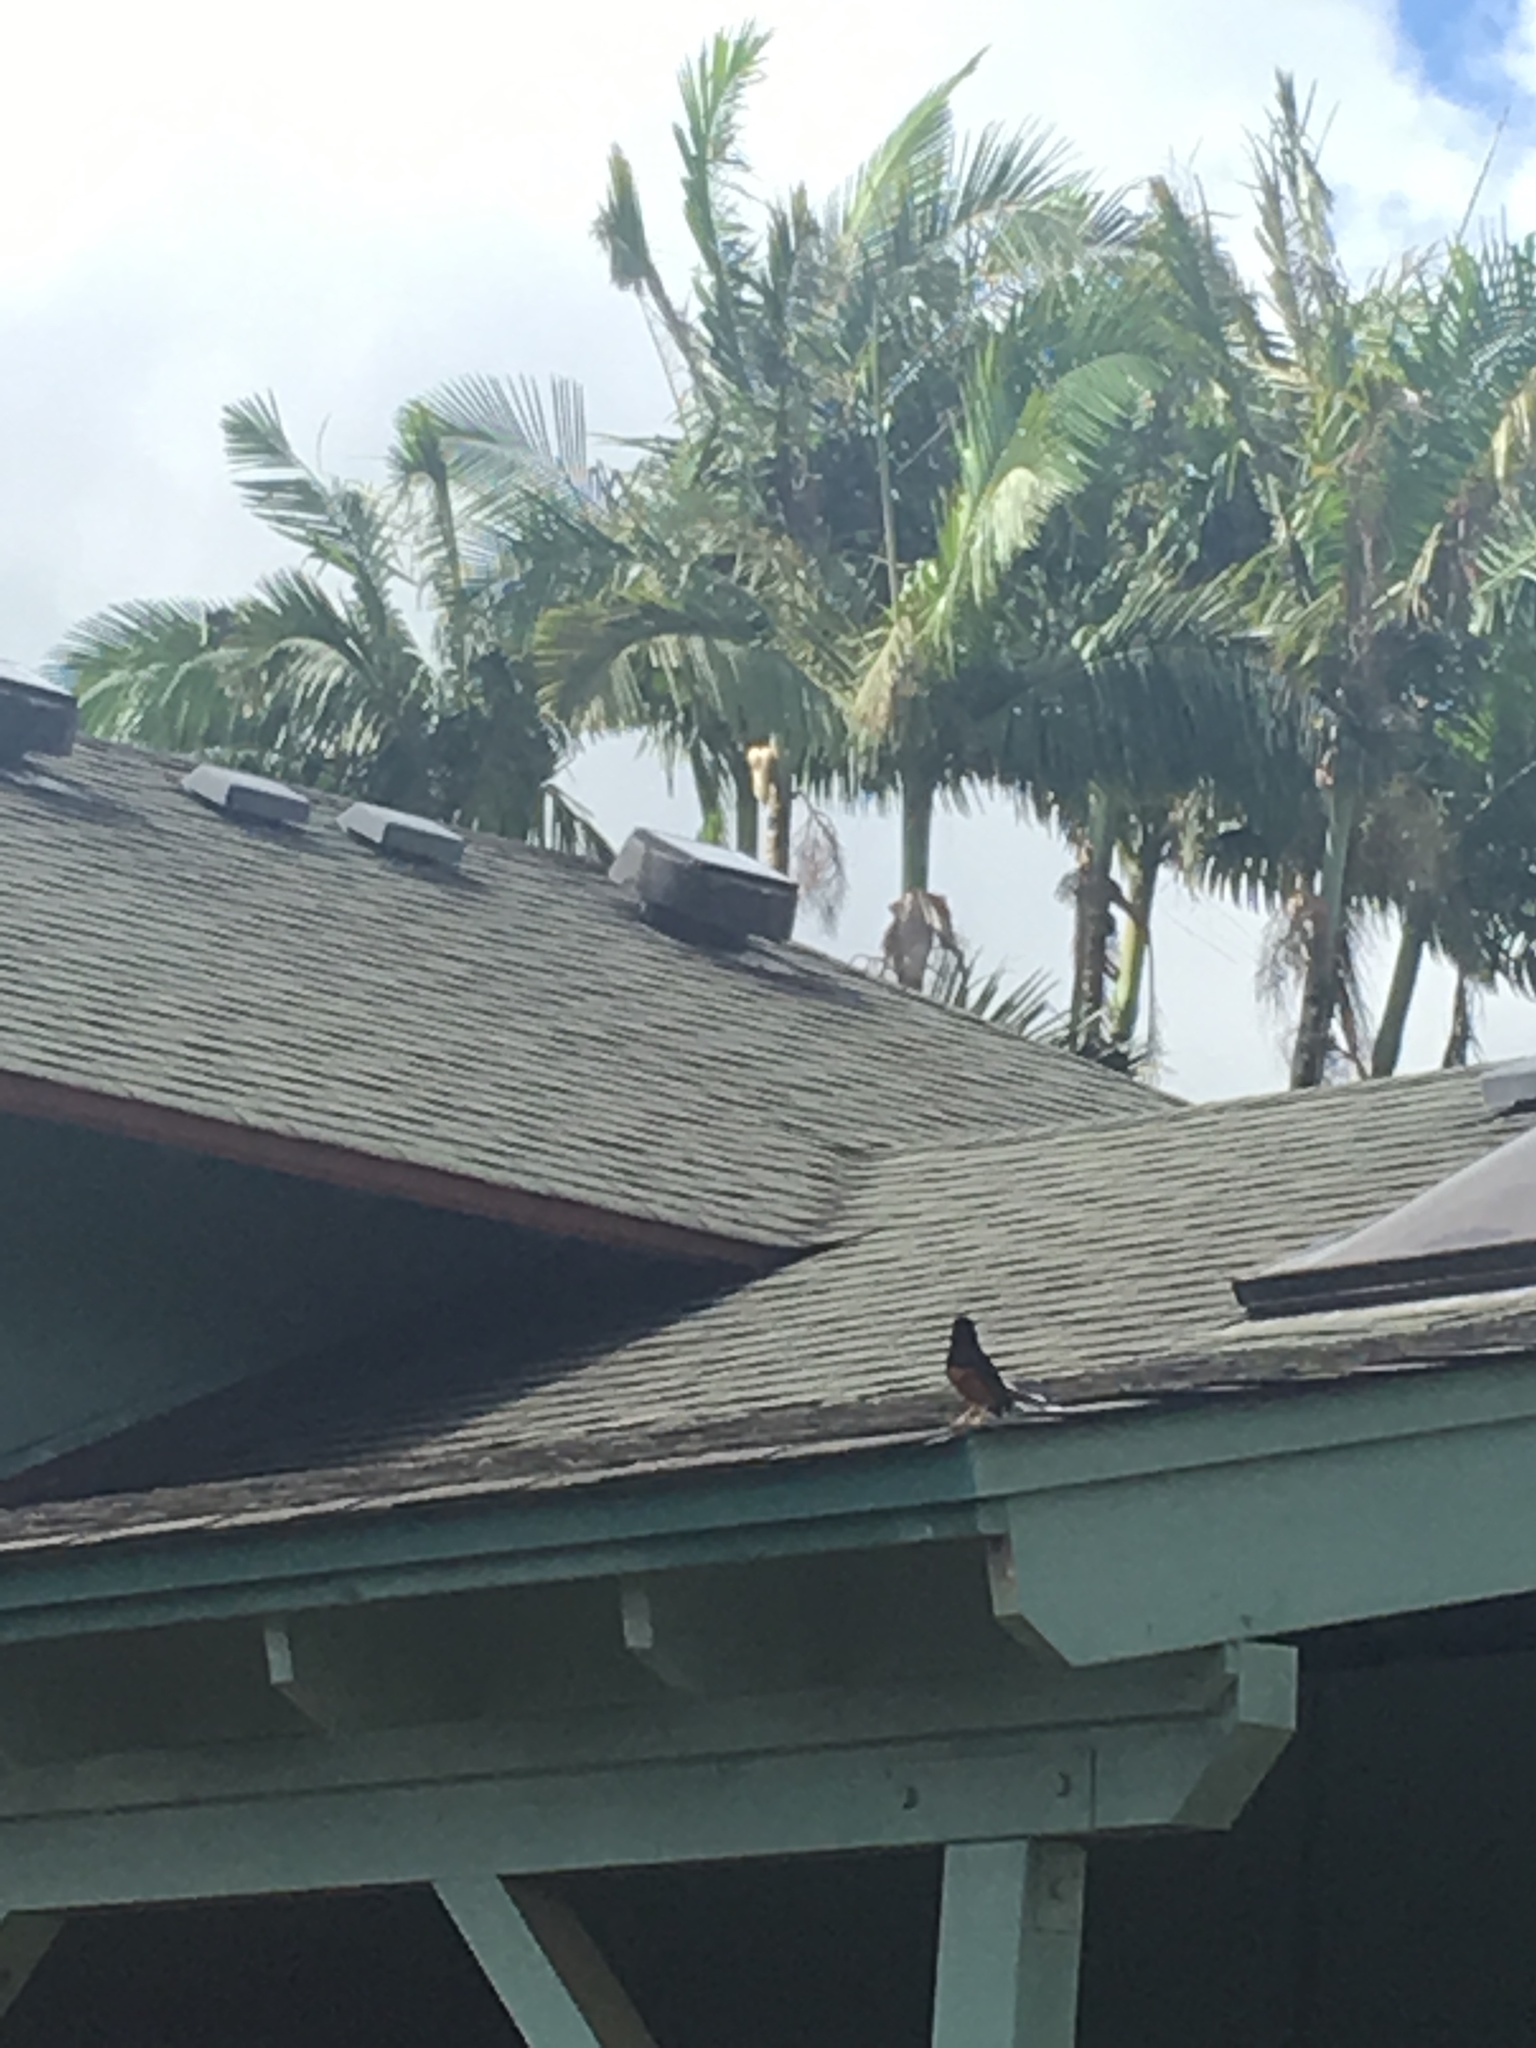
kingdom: Animalia
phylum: Chordata
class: Aves
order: Passeriformes
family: Muscicapidae
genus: Copsychus
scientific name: Copsychus malabaricus
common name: White-rumped shama
